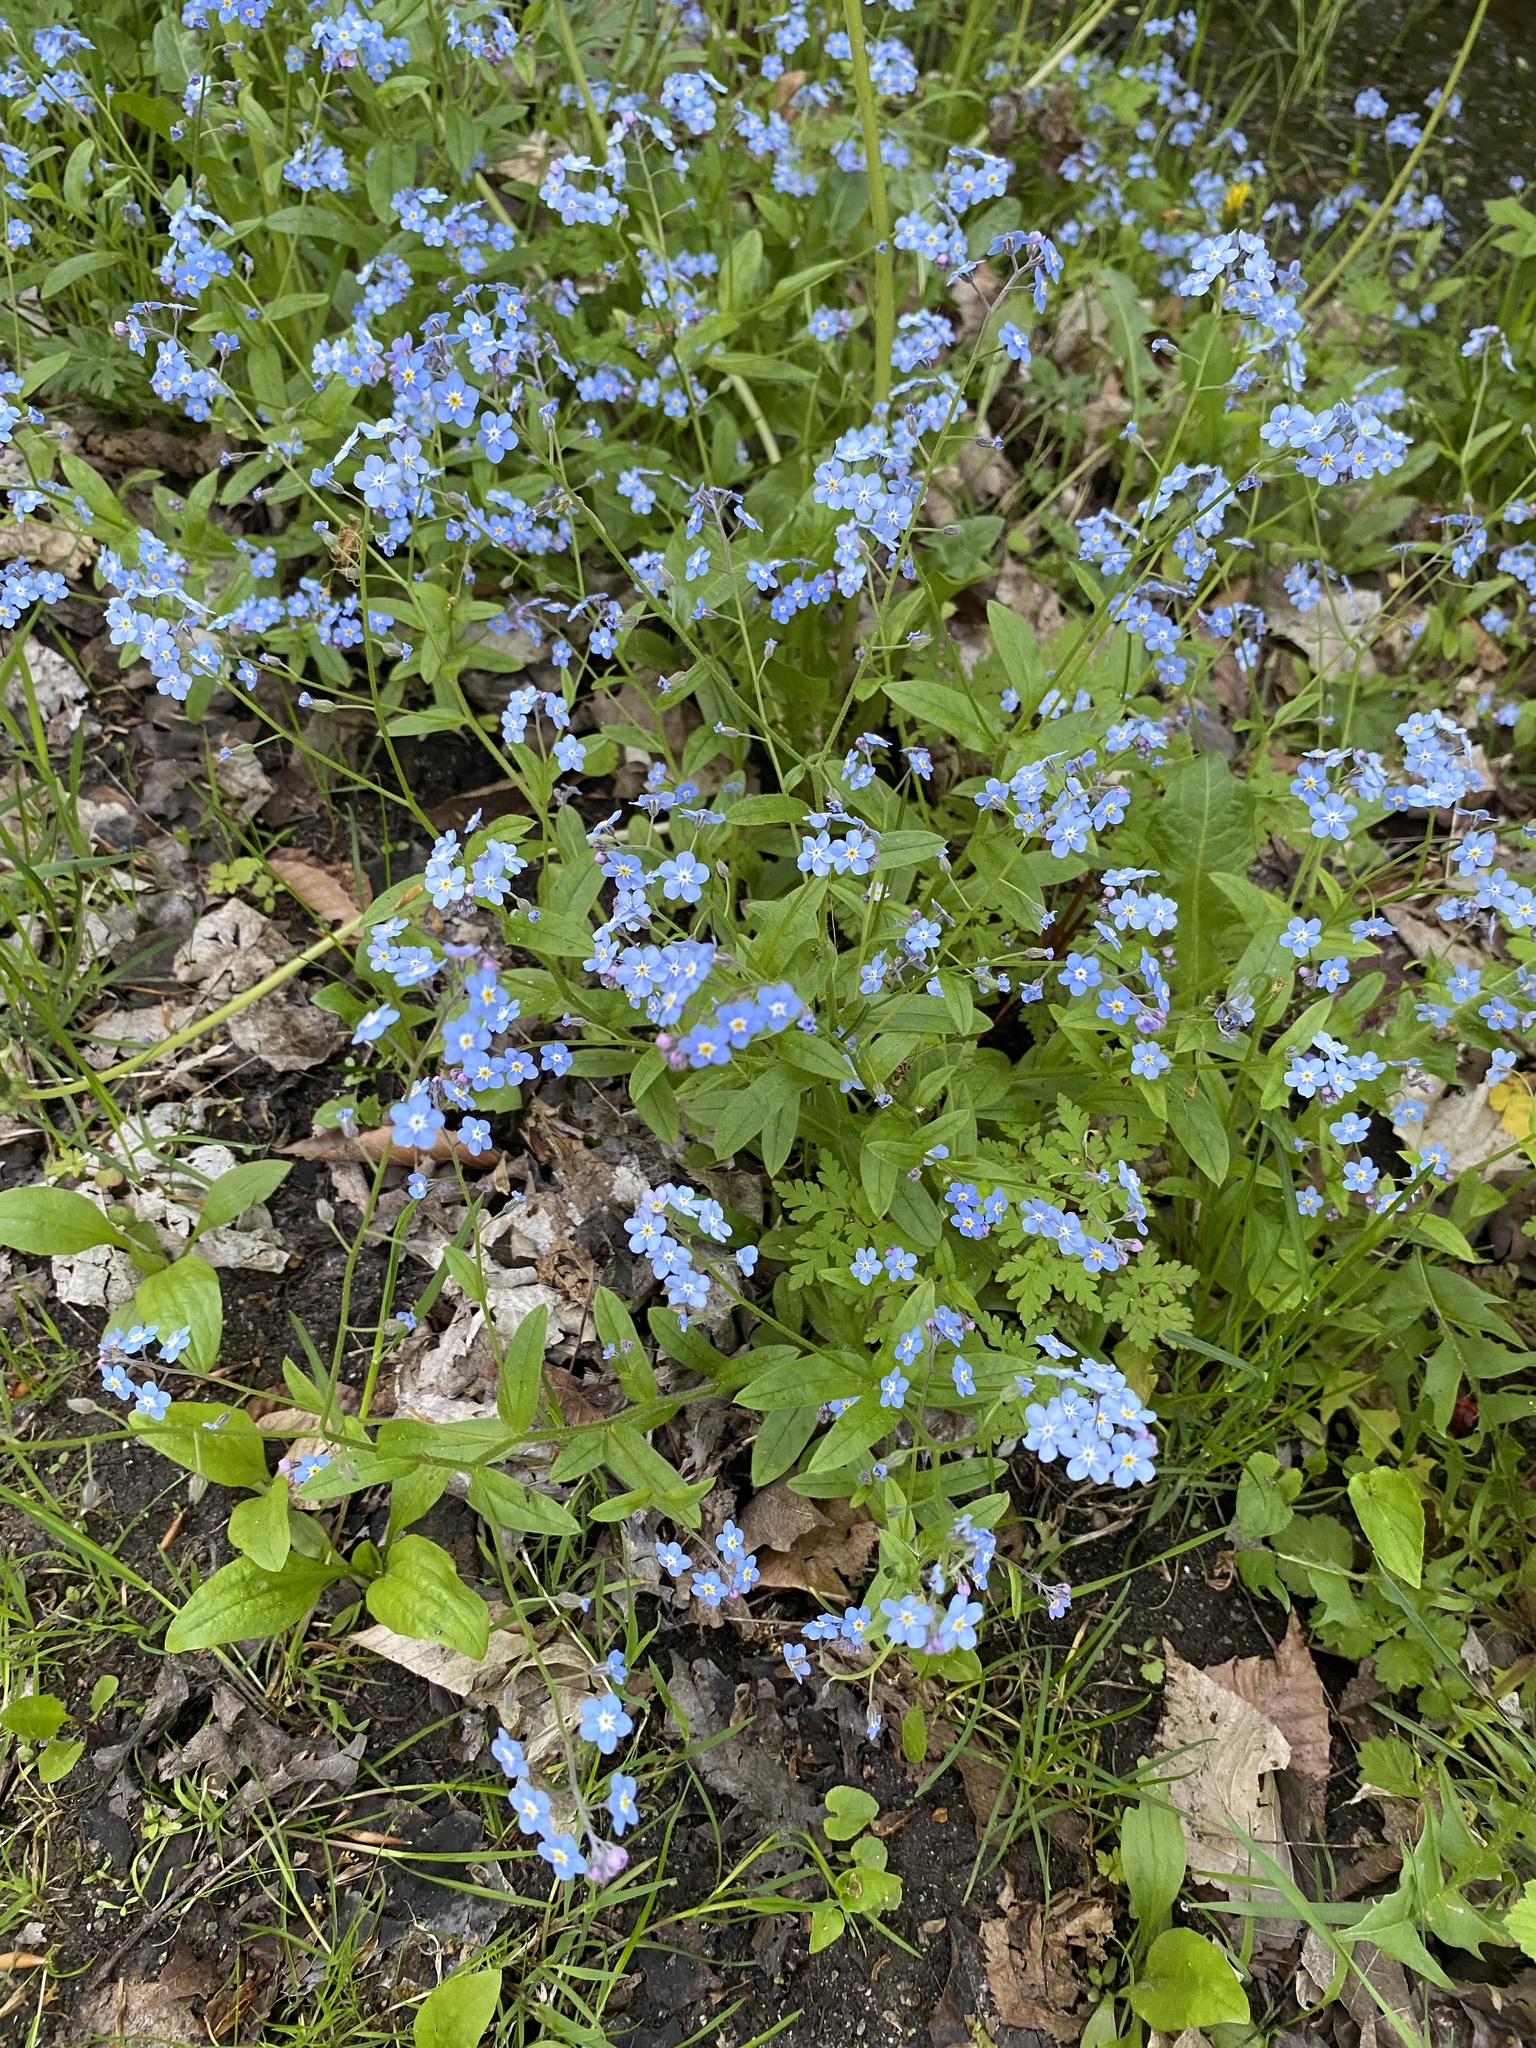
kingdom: Plantae
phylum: Tracheophyta
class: Magnoliopsida
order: Boraginales
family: Boraginaceae
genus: Myosotis
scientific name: Myosotis sylvatica
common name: Wood forget-me-not
